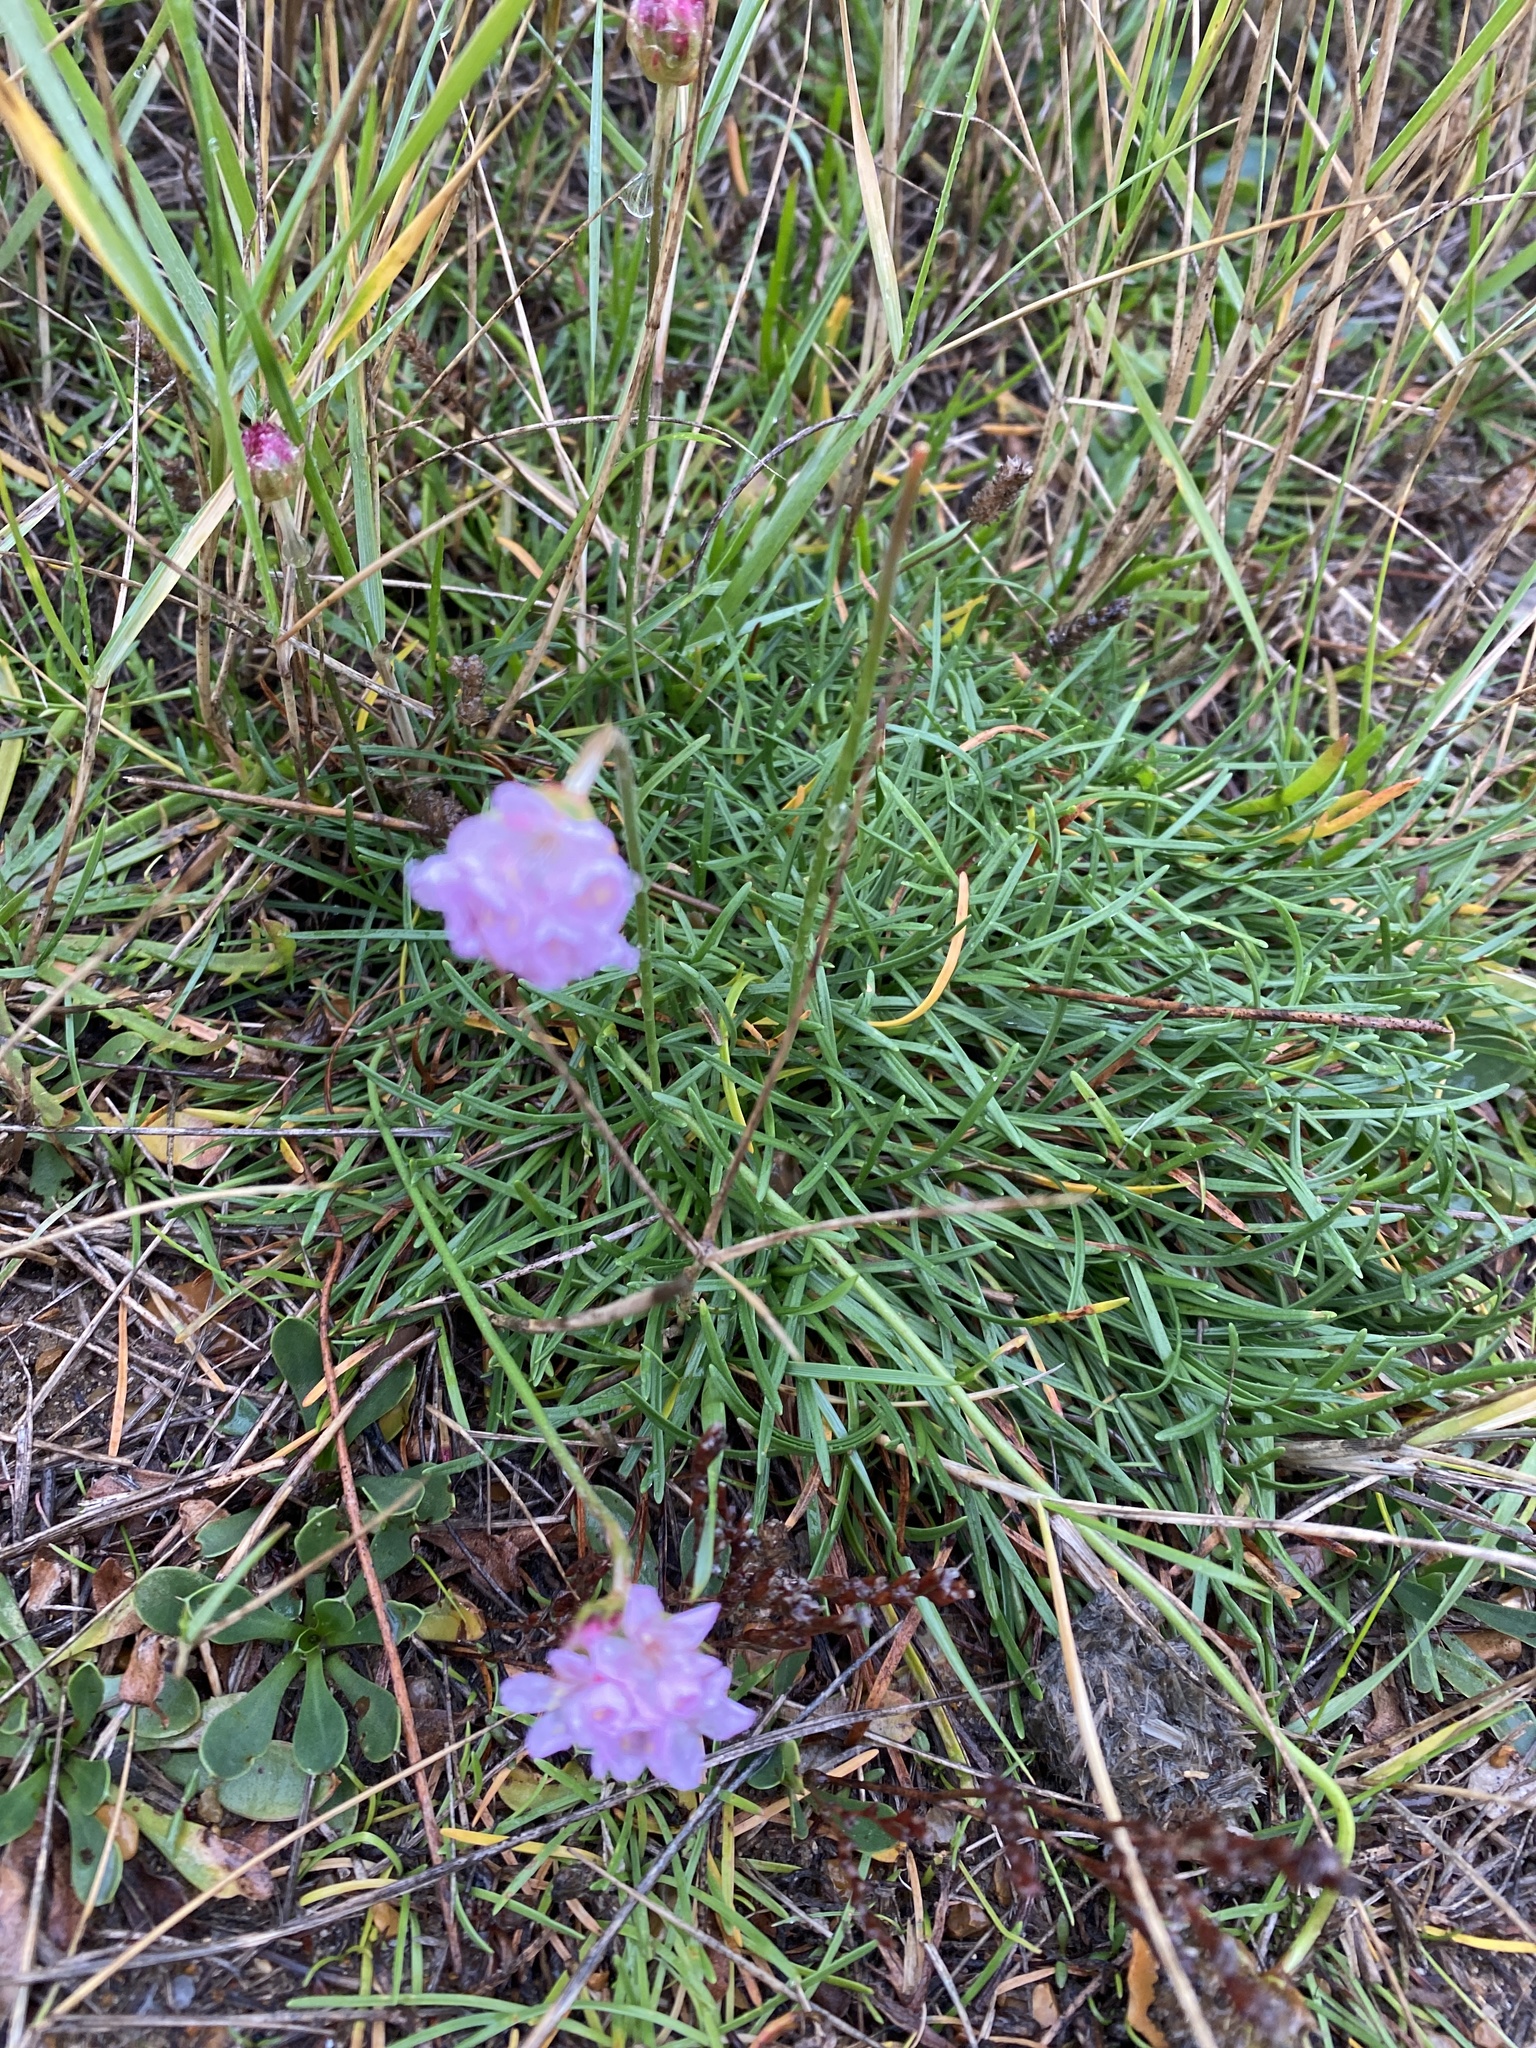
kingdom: Plantae
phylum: Tracheophyta
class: Magnoliopsida
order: Caryophyllales
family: Plumbaginaceae
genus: Armeria
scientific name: Armeria maritima
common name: Thrift
